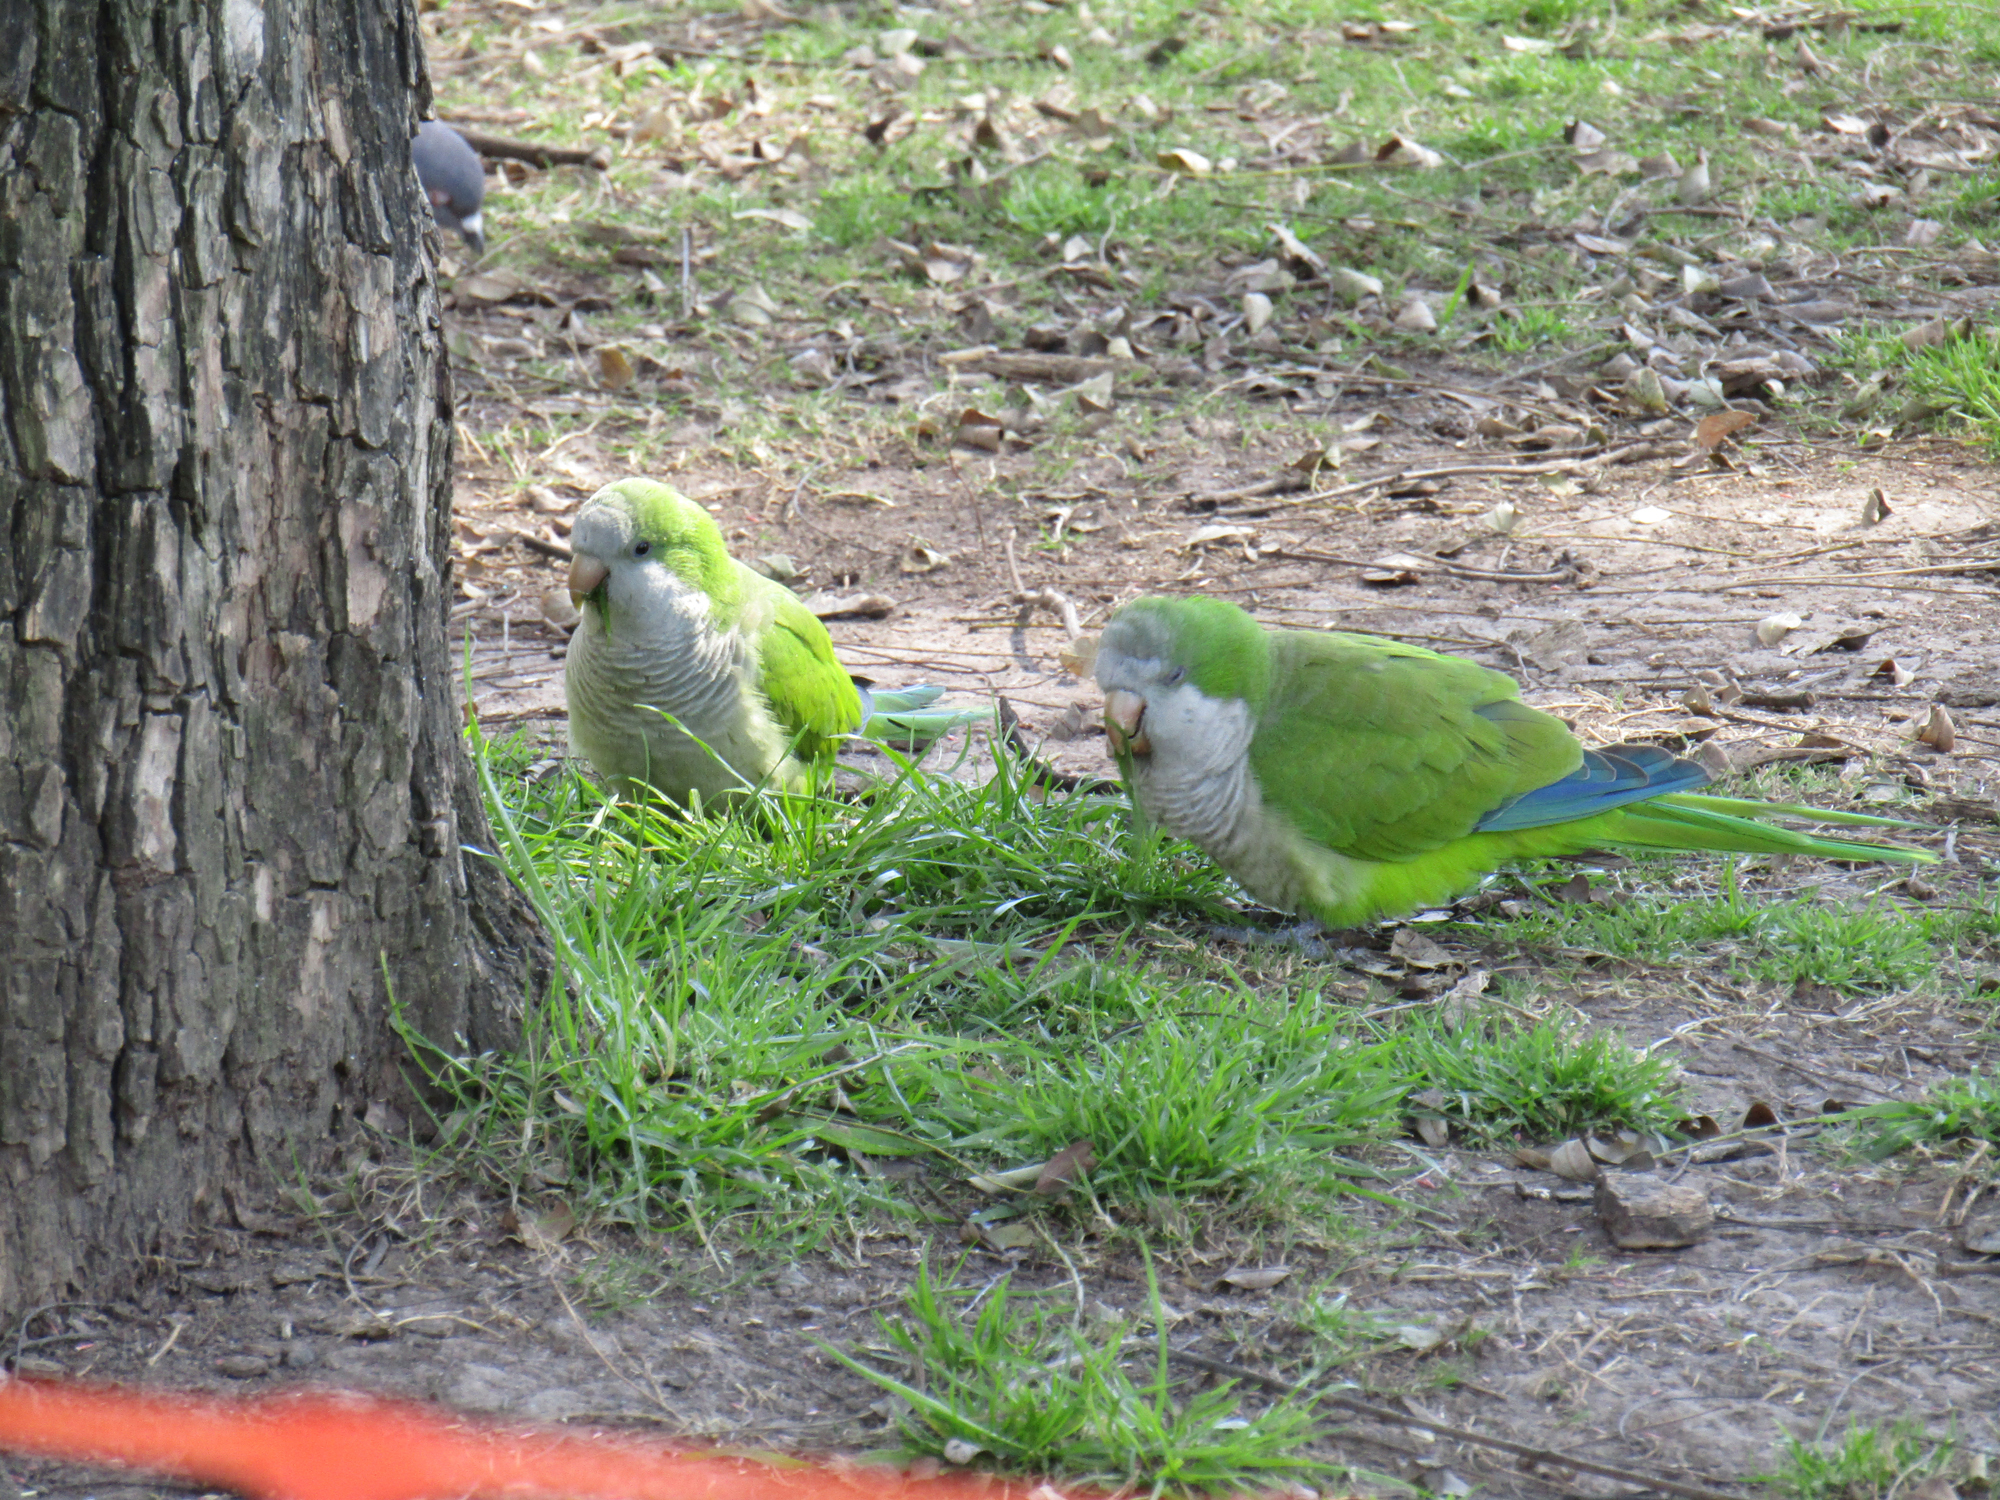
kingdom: Animalia
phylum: Chordata
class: Aves
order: Psittaciformes
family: Psittacidae
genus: Myiopsitta
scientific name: Myiopsitta monachus
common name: Monk parakeet
